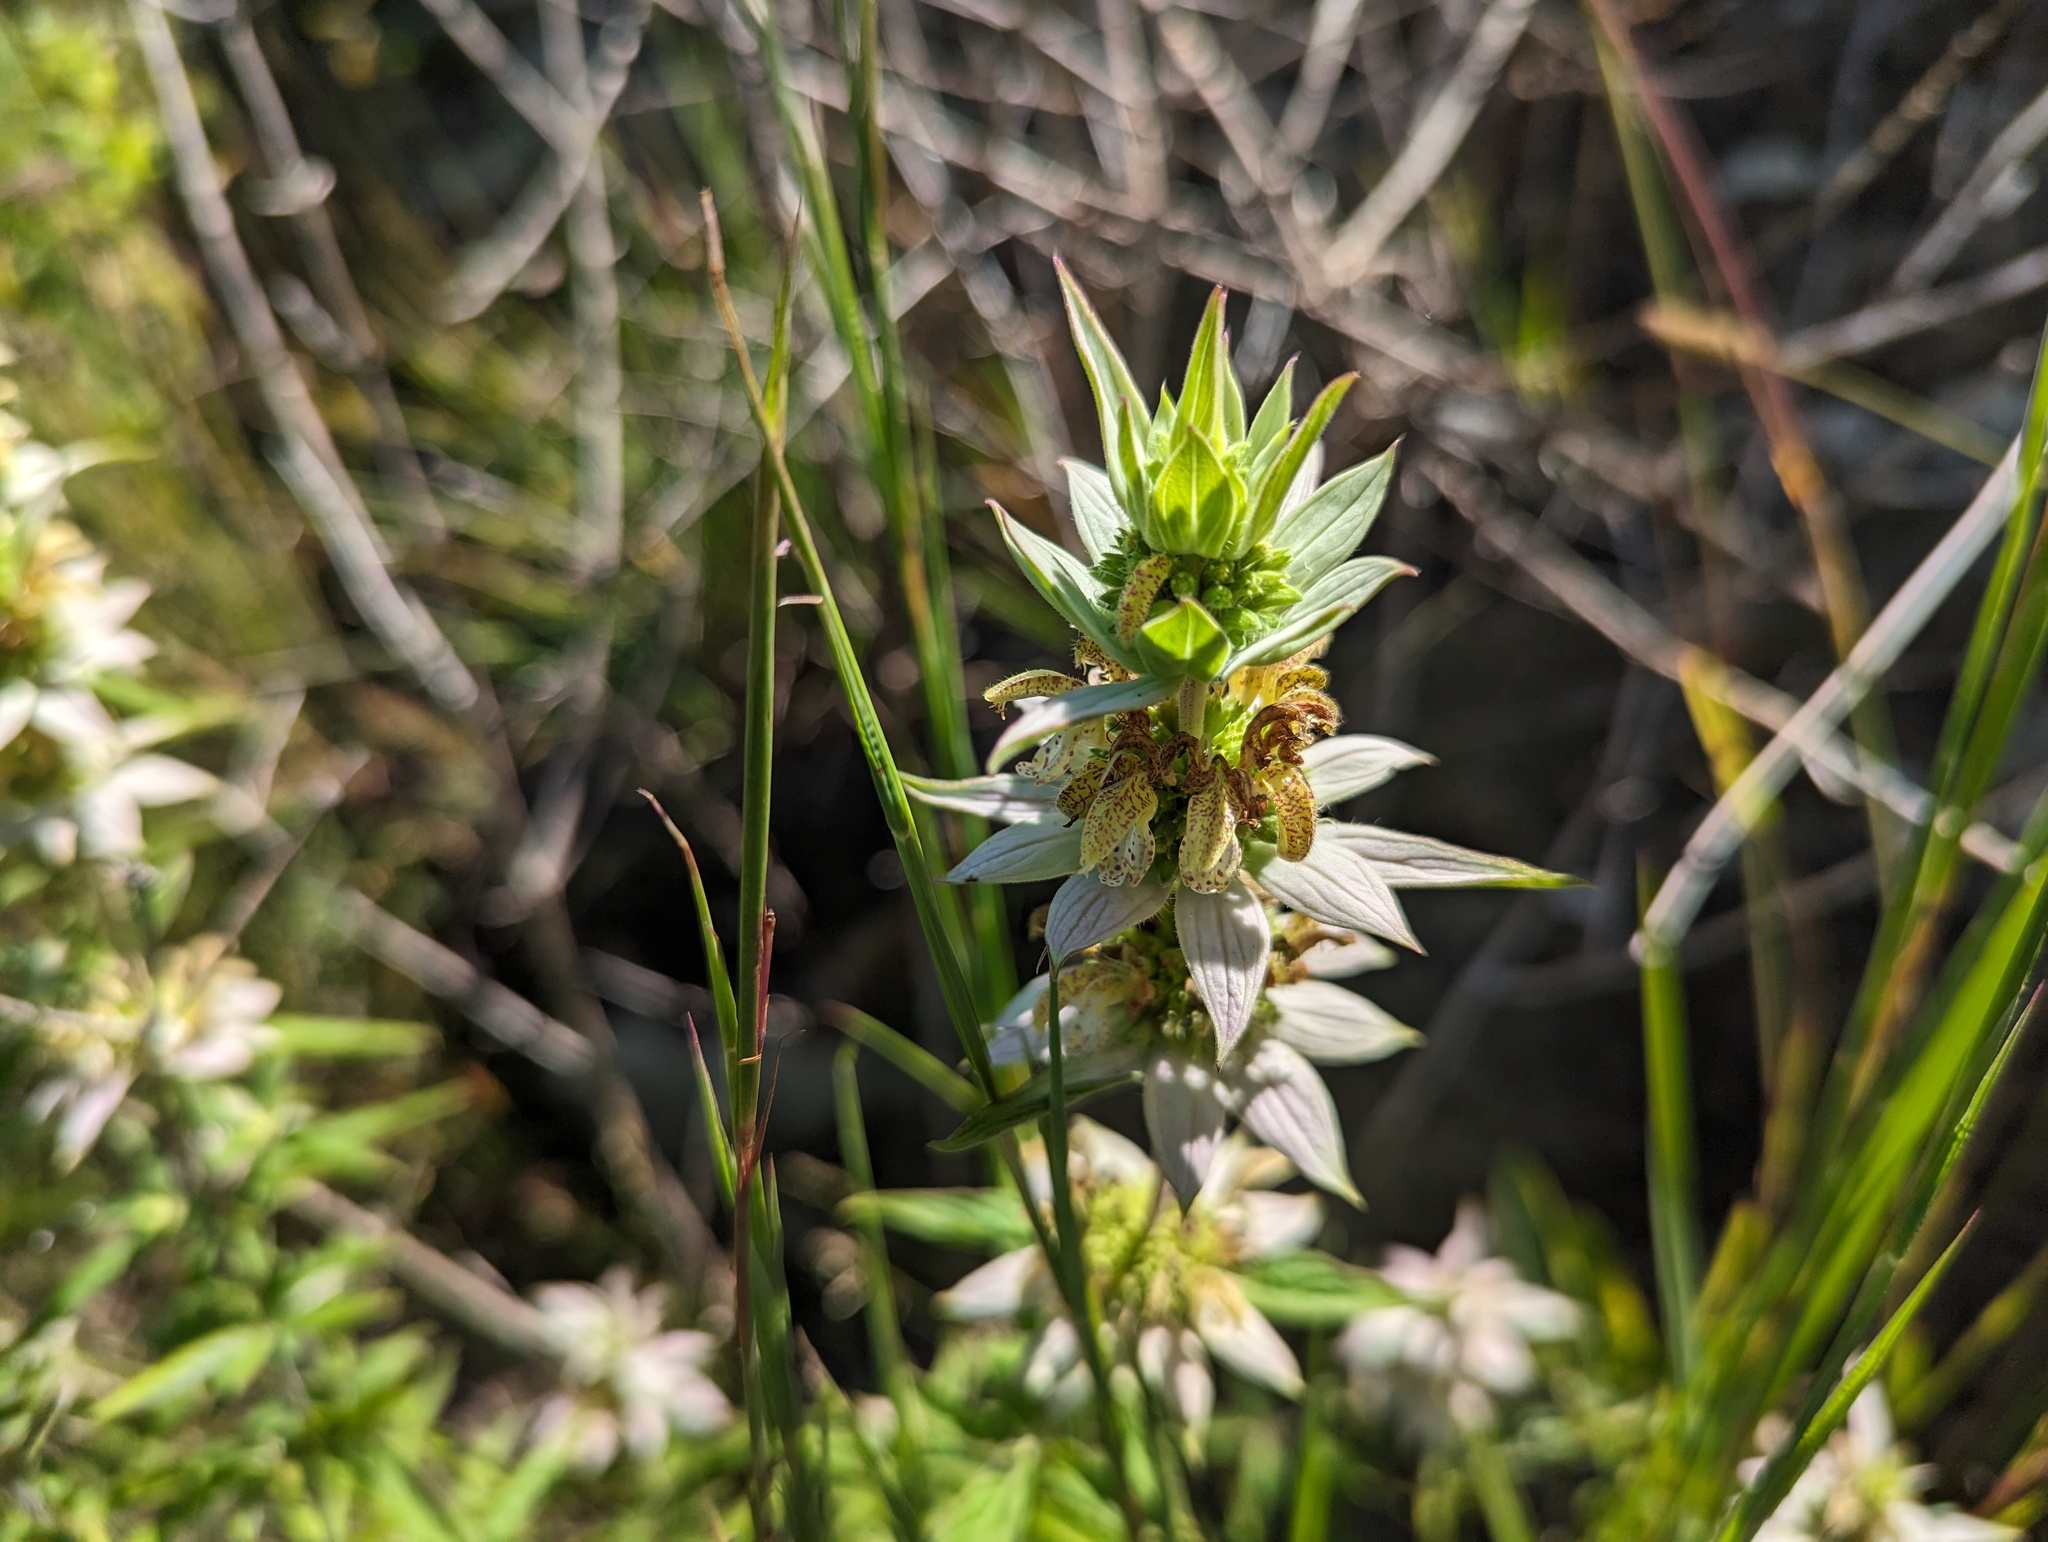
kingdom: Plantae
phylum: Tracheophyta
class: Magnoliopsida
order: Lamiales
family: Lamiaceae
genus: Monarda
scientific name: Monarda punctata
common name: Dotted monarda
